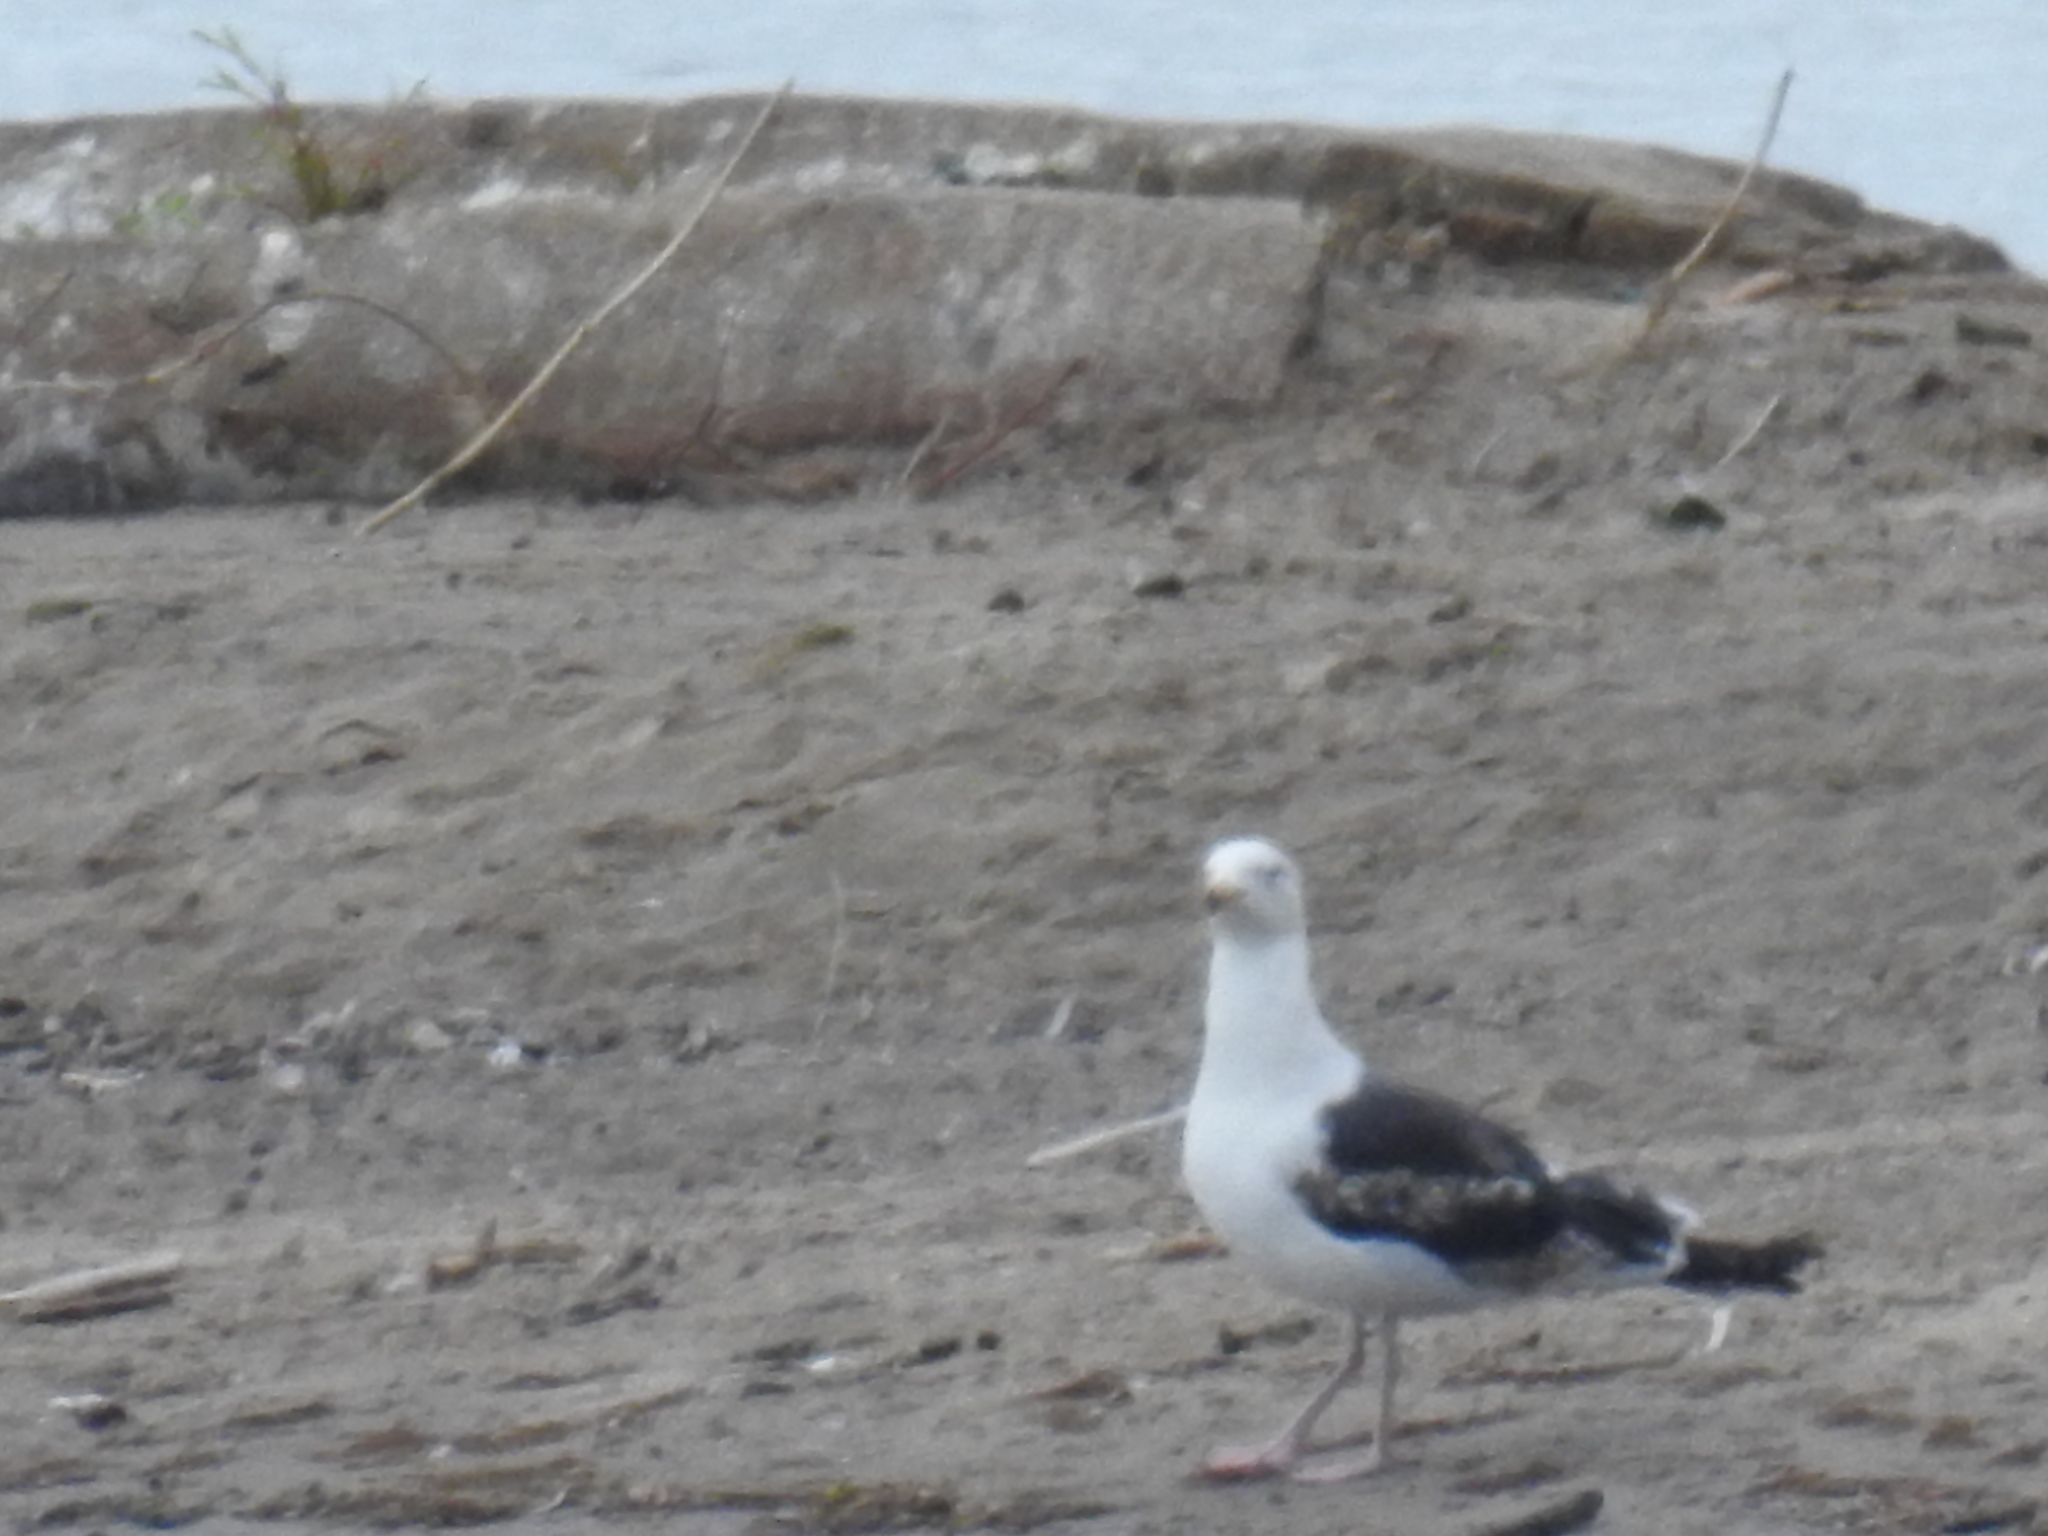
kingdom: Animalia
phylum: Chordata
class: Aves
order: Charadriiformes
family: Laridae
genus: Larus
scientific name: Larus marinus
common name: Great black-backed gull
